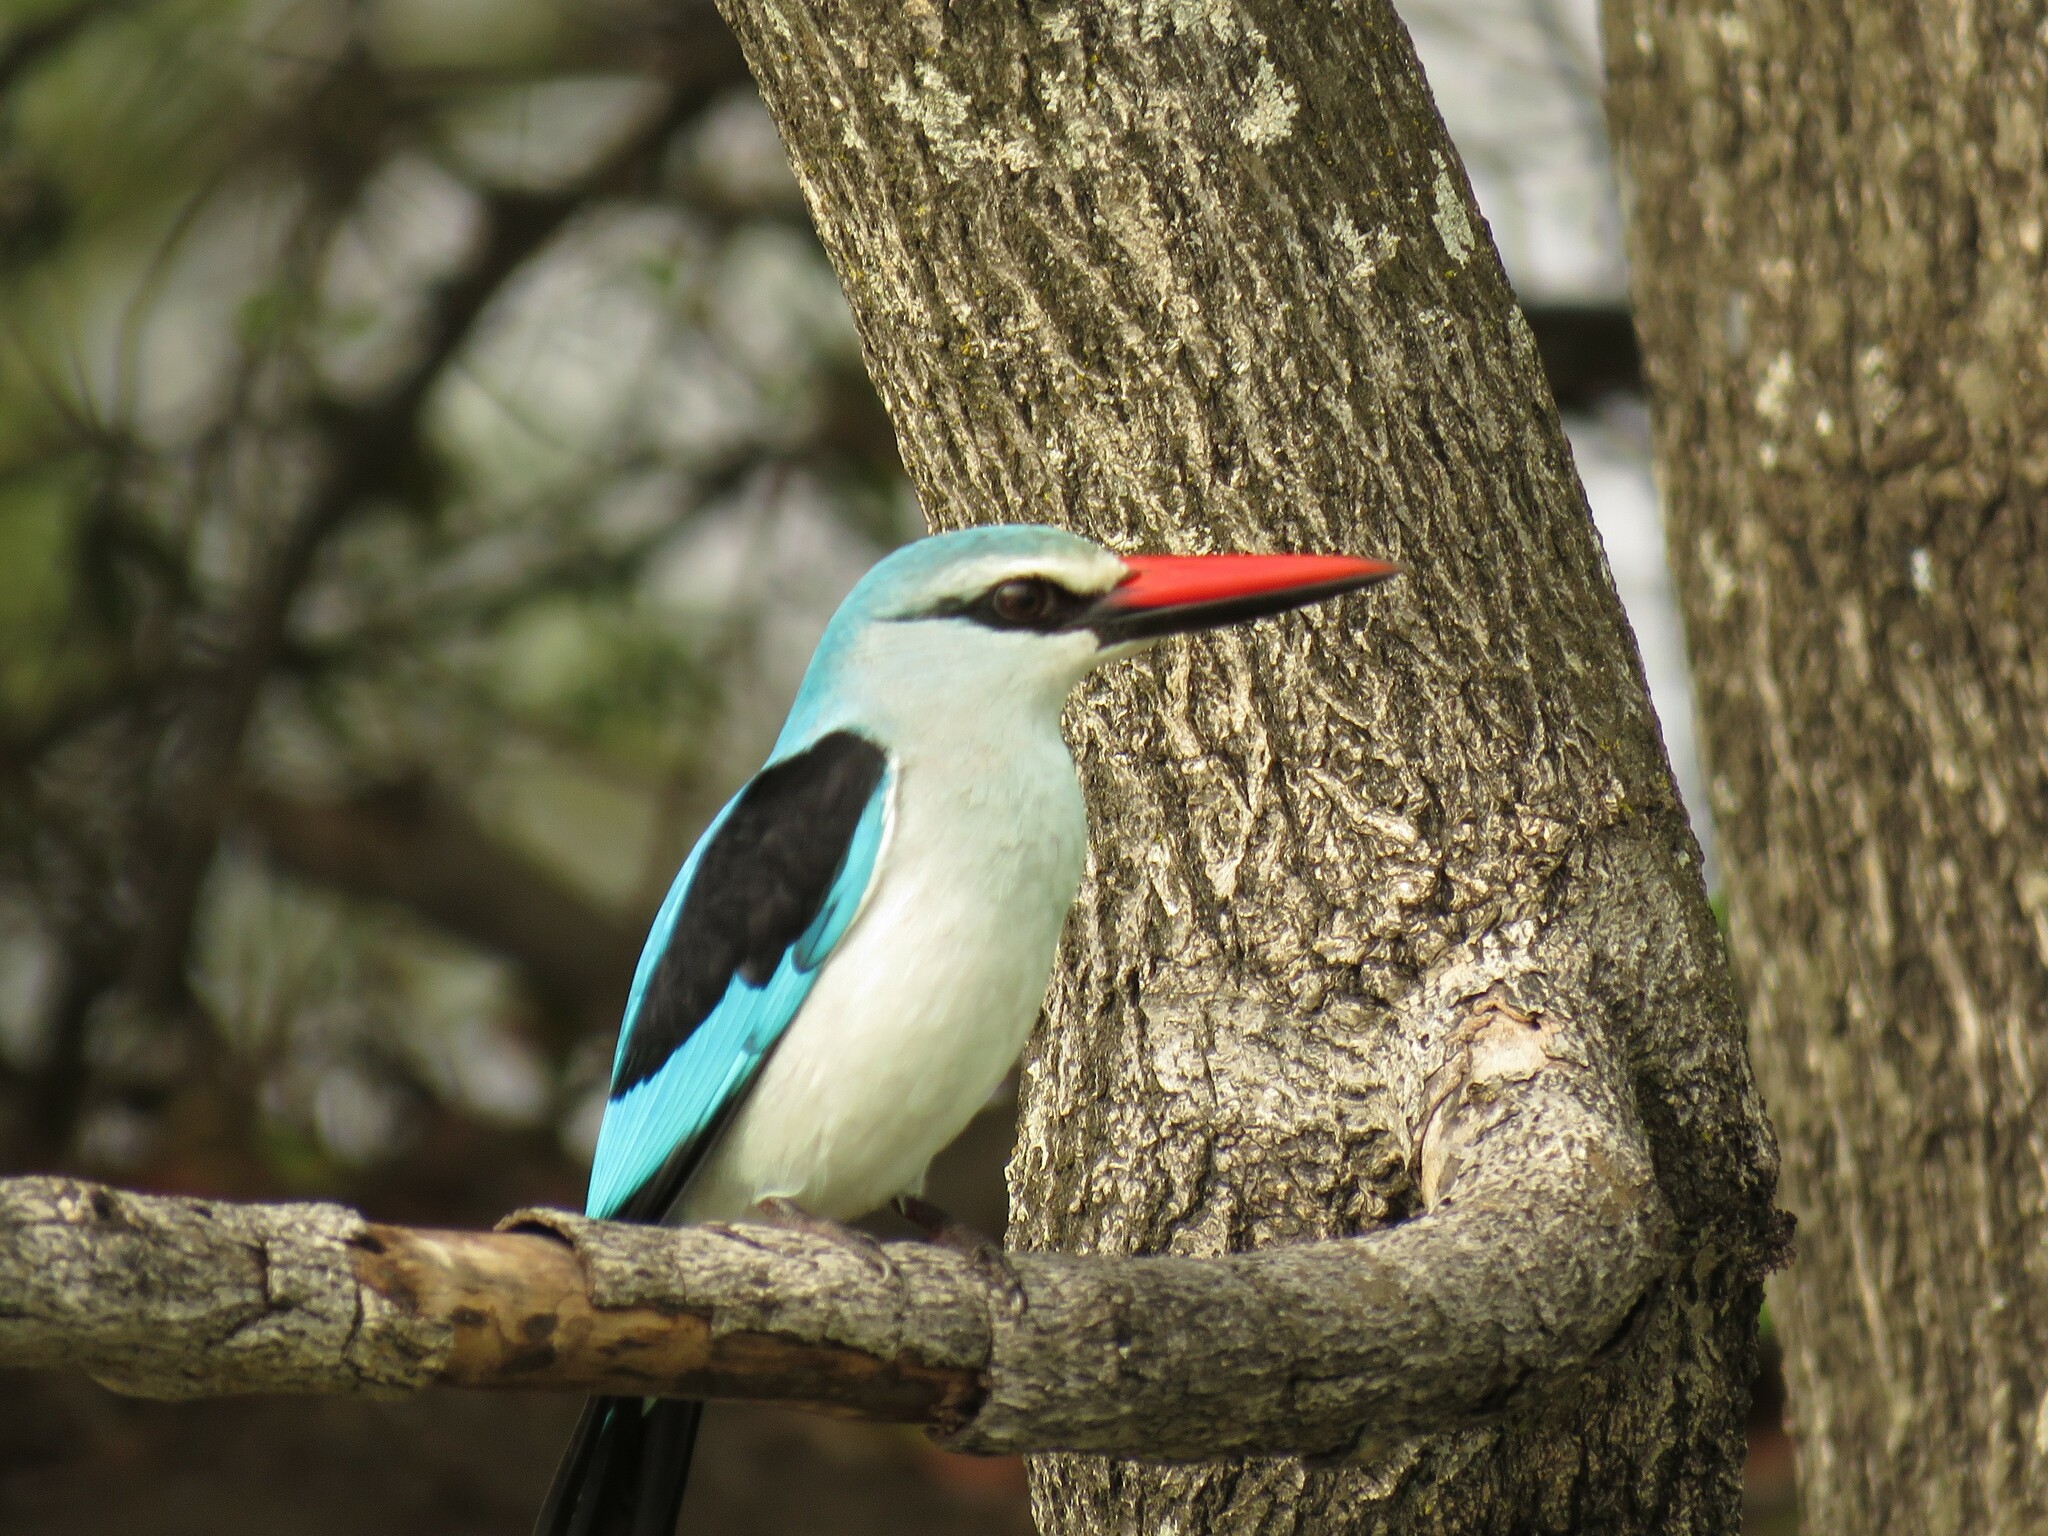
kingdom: Animalia
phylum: Chordata
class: Aves
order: Coraciiformes
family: Alcedinidae
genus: Halcyon
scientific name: Halcyon senegalensis
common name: Woodland kingfisher
